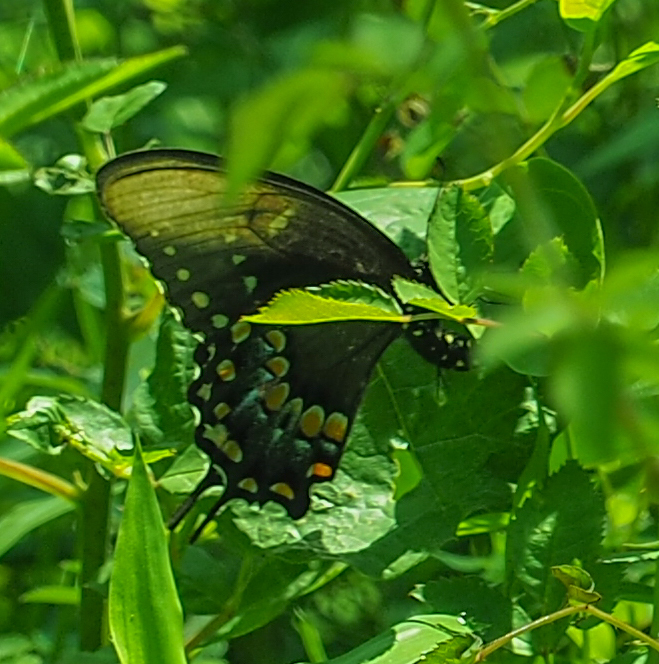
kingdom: Animalia
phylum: Arthropoda
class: Insecta
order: Lepidoptera
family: Papilionidae
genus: Papilio
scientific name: Papilio troilus
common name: Spicebush swallowtail
